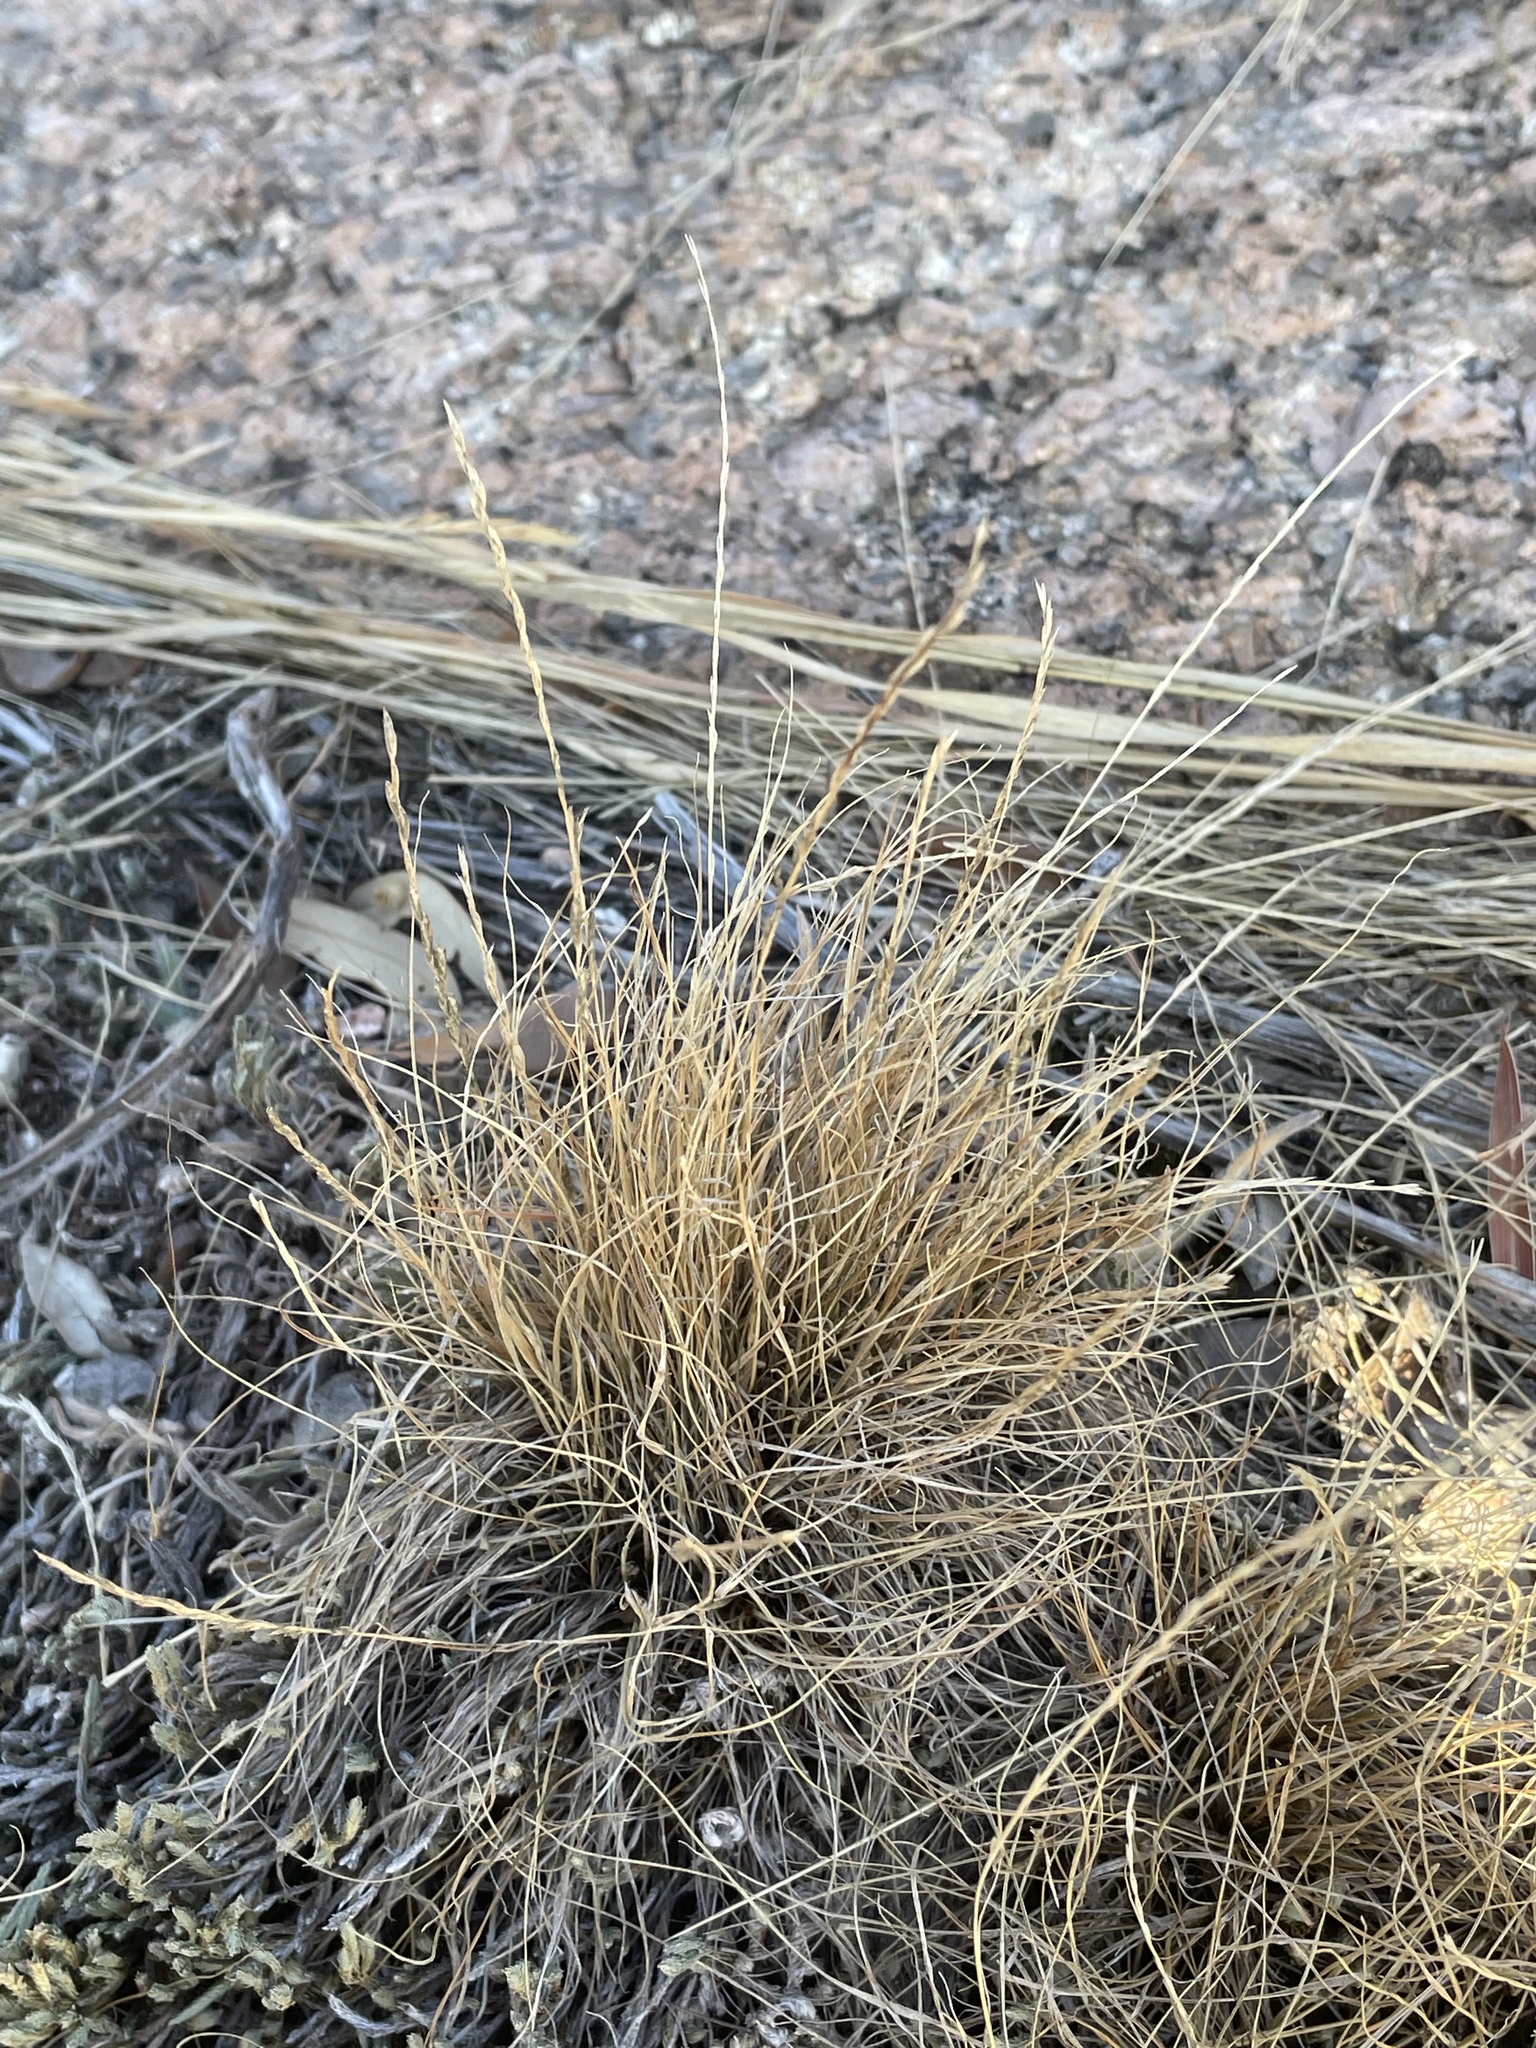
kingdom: Plantae
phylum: Tracheophyta
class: Liliopsida
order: Poales
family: Poaceae
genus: Tripogonella
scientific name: Tripogonella spicata
